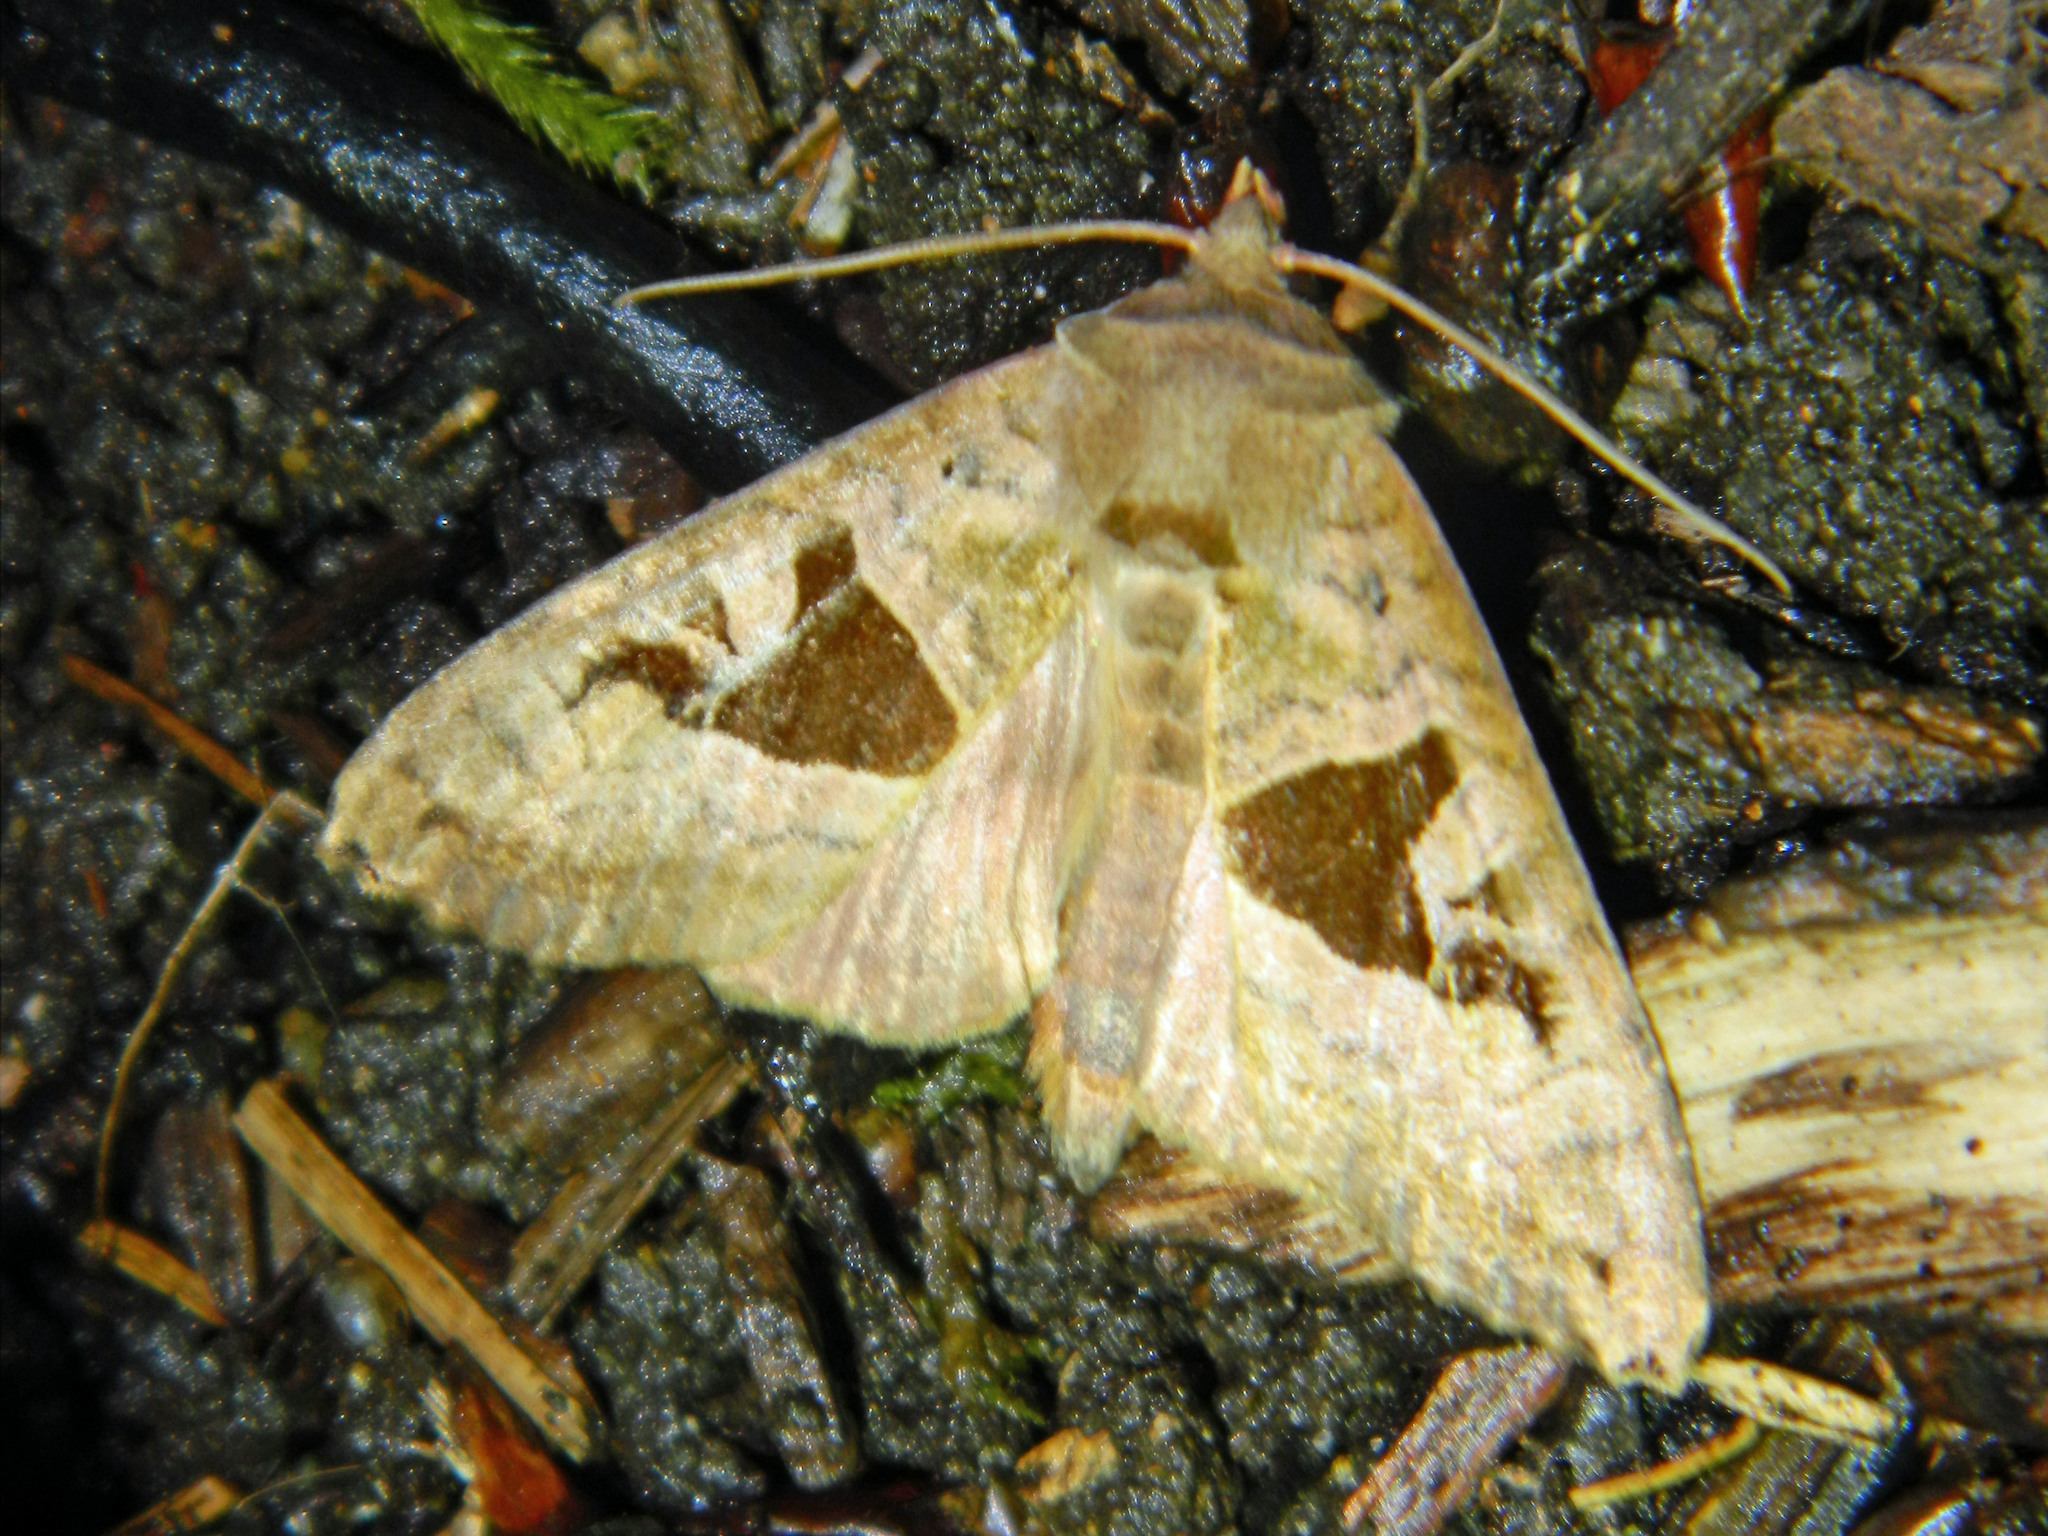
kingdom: Animalia
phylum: Arthropoda
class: Insecta
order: Lepidoptera
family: Noctuidae
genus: Phlogophora
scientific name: Phlogophora periculosa
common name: Brown angle shades
